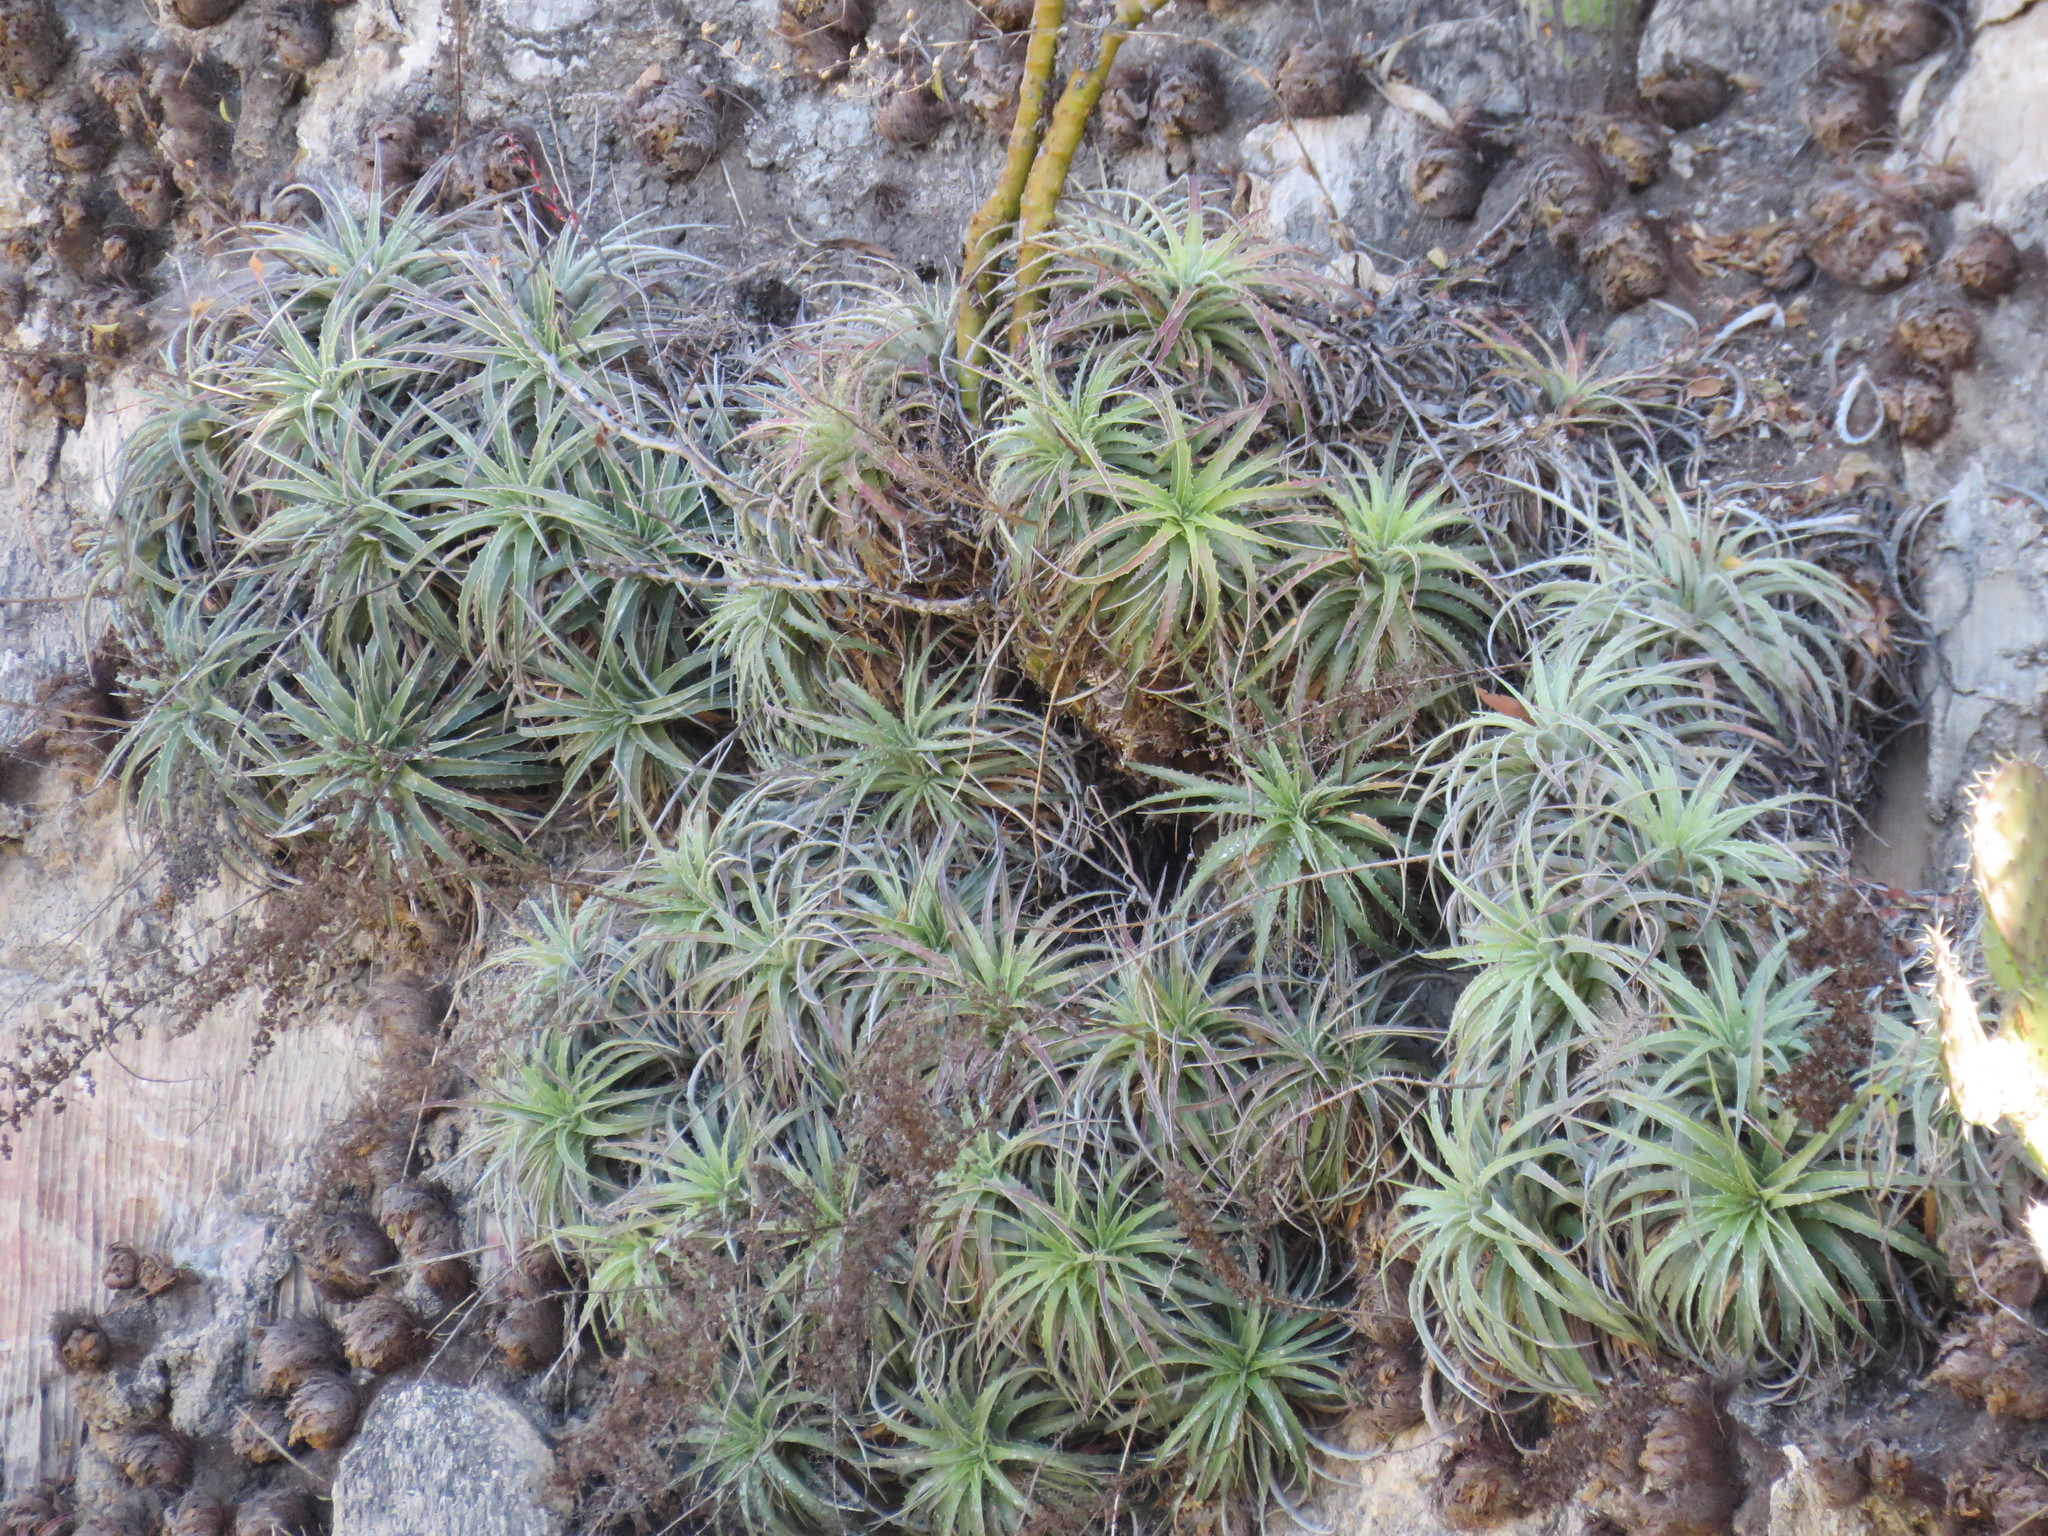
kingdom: Plantae
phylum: Tracheophyta
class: Liliopsida
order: Poales
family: Bromeliaceae
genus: Hechtia
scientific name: Hechtia elegans
